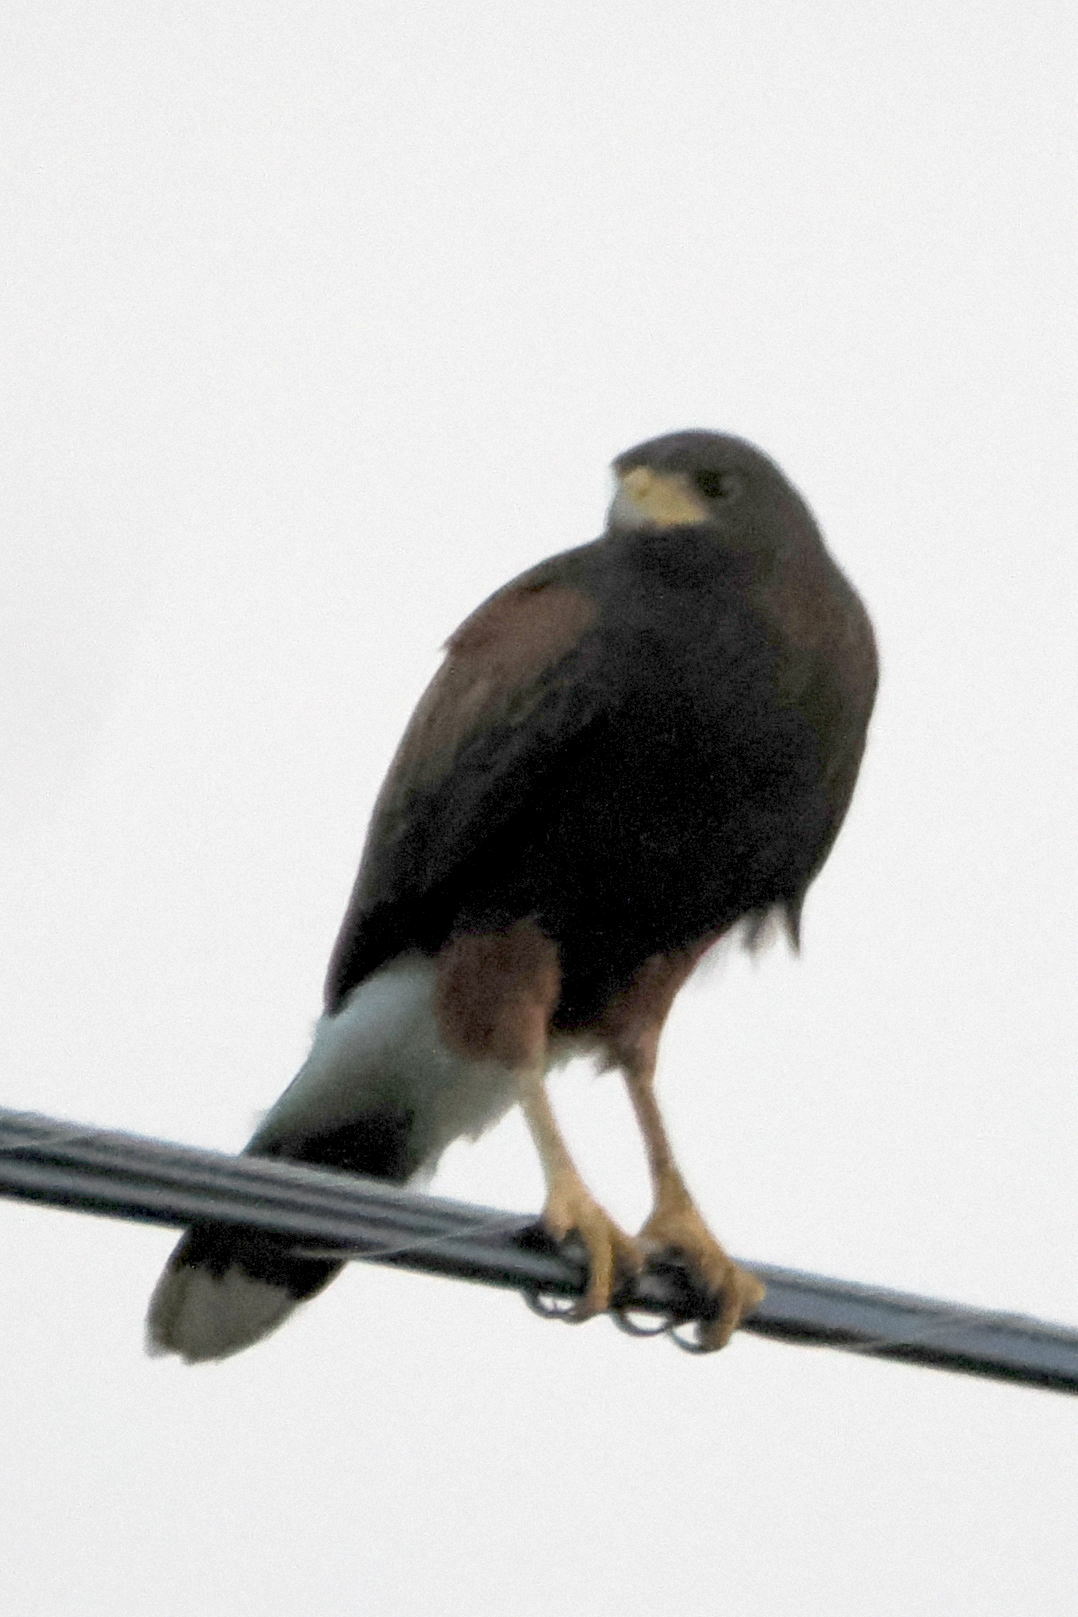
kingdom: Animalia
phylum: Chordata
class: Aves
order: Accipitriformes
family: Accipitridae
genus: Parabuteo
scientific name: Parabuteo unicinctus
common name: Harris's hawk
